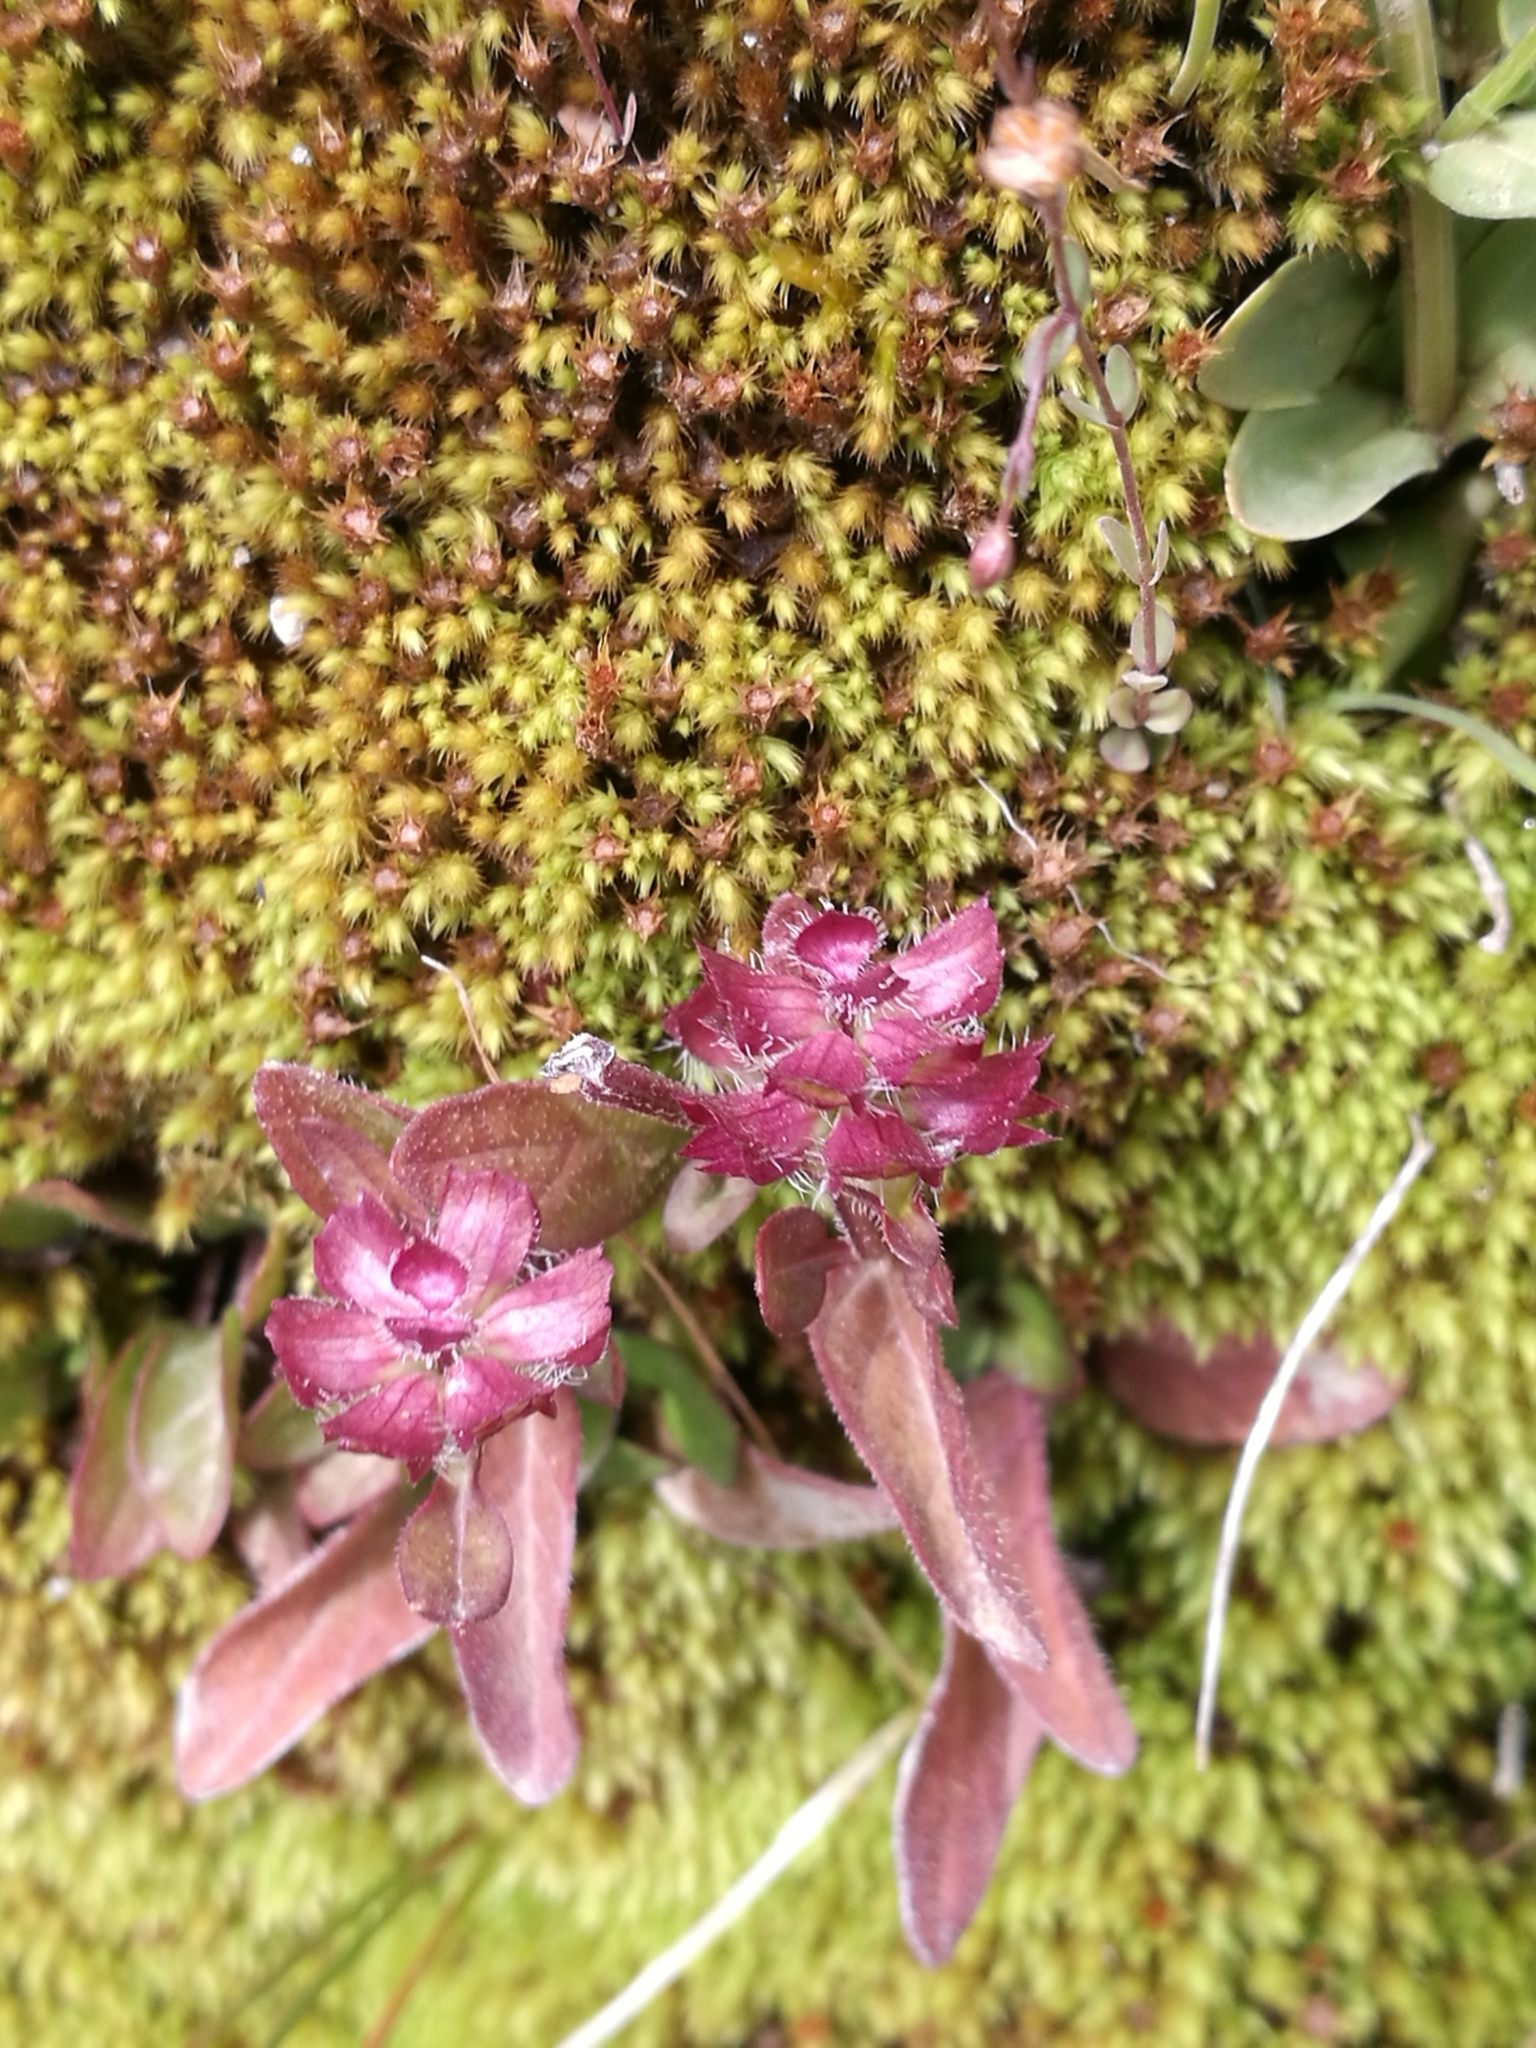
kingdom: Plantae
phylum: Tracheophyta
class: Magnoliopsida
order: Lamiales
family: Lamiaceae
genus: Prunella
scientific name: Prunella vulgaris
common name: Heal-all
